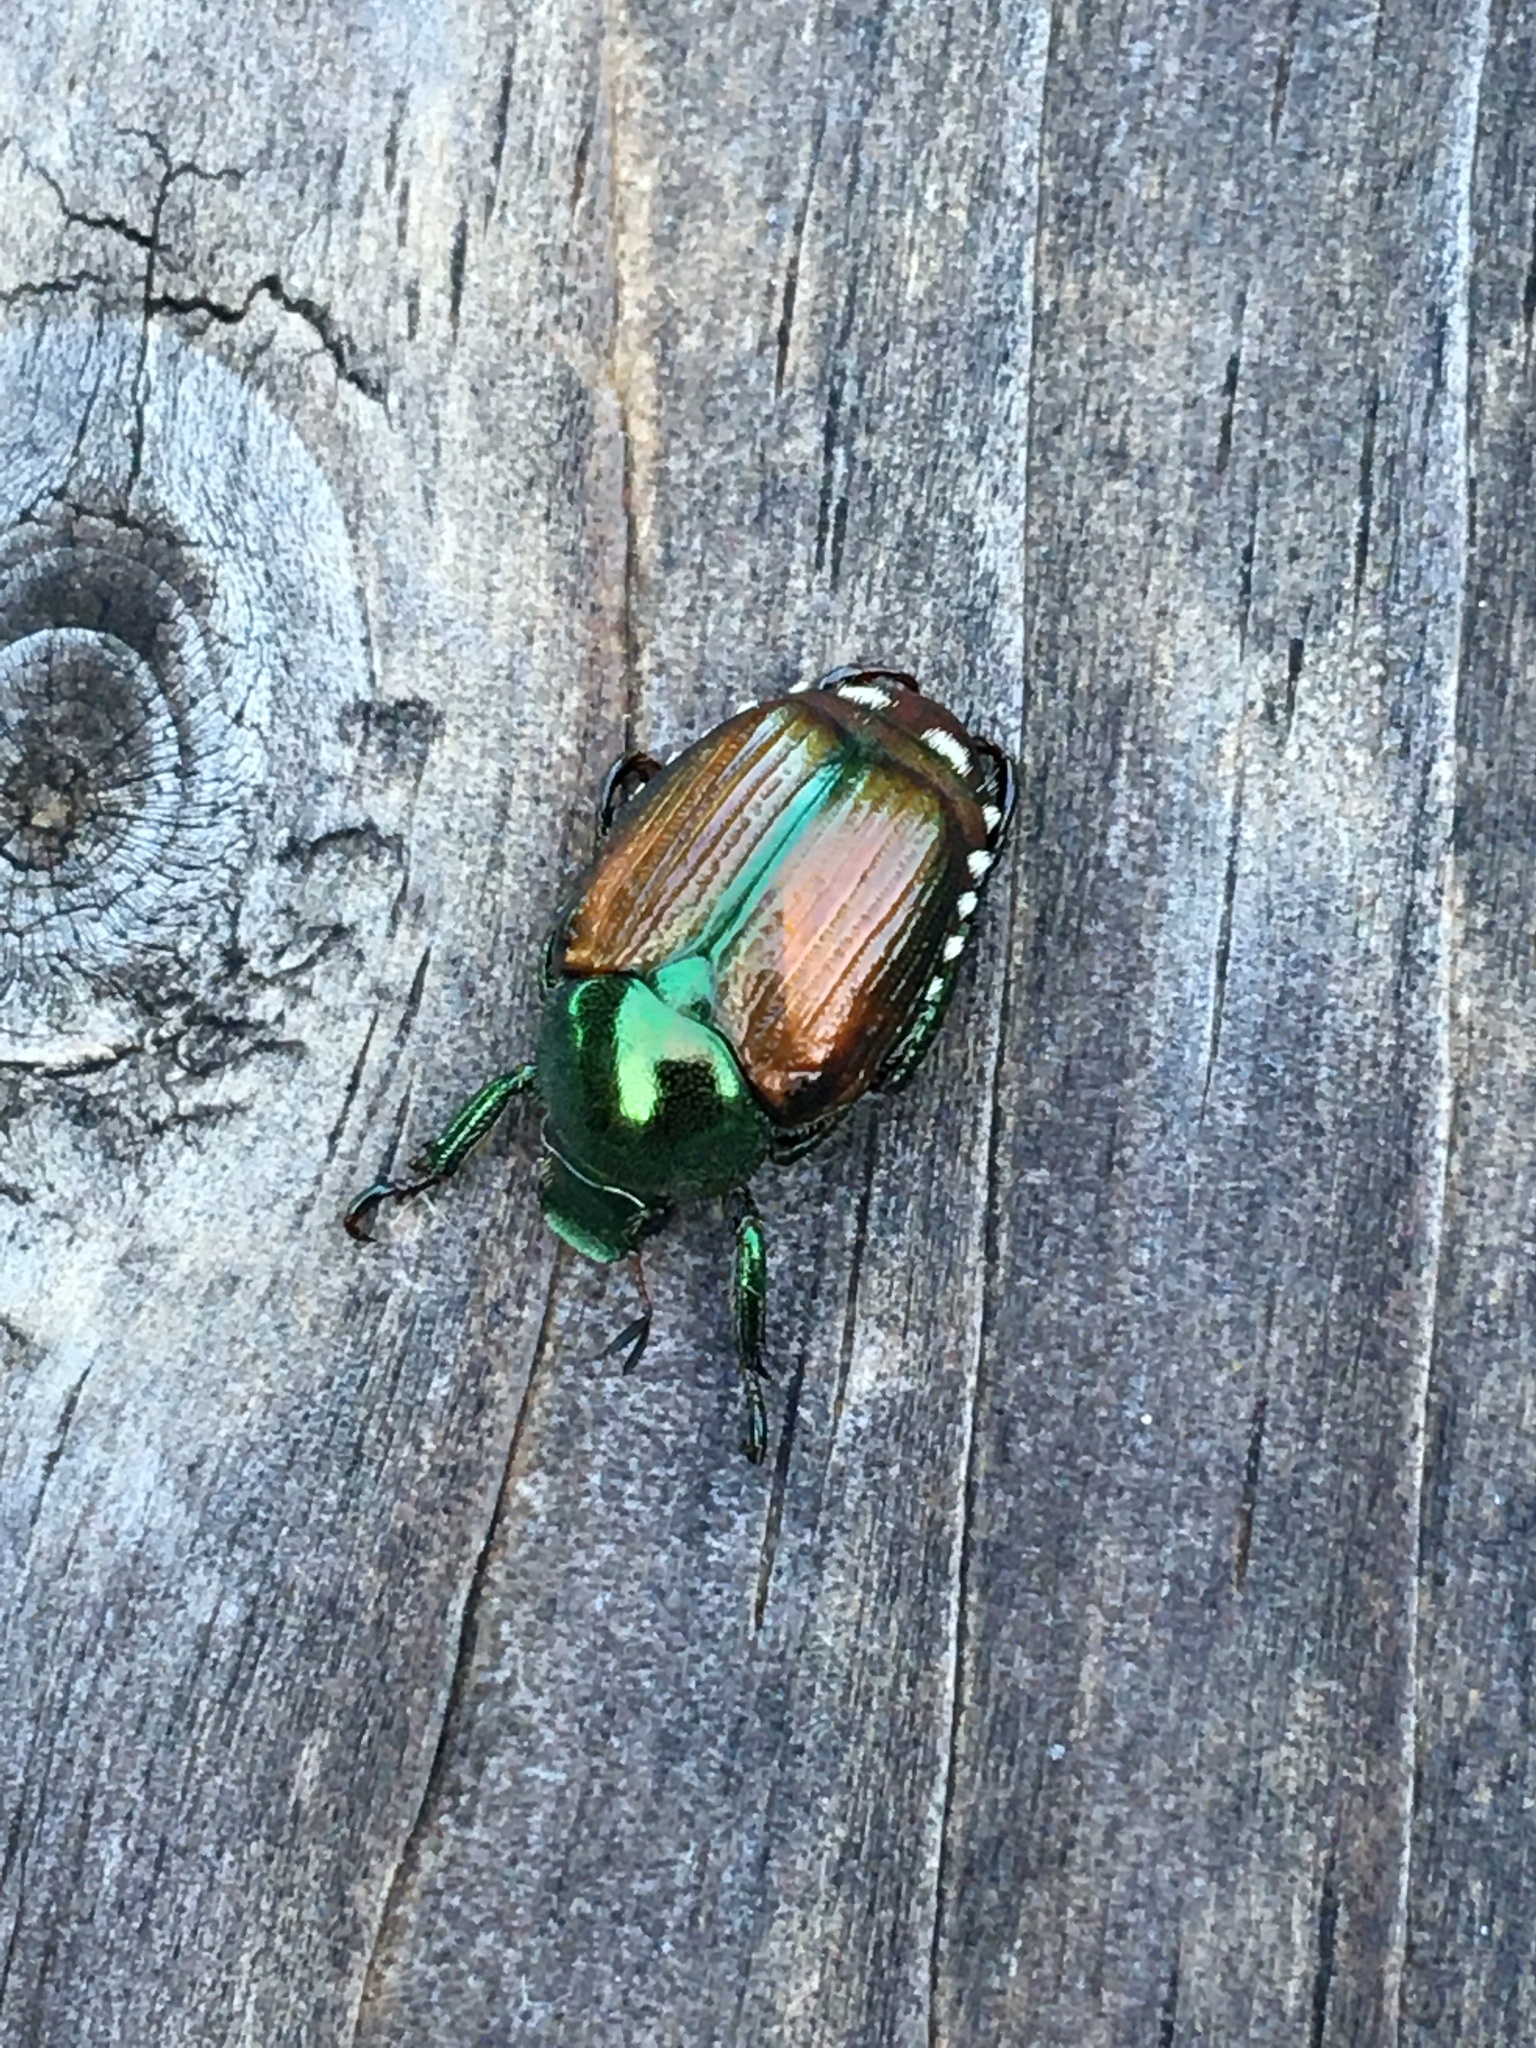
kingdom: Animalia
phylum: Arthropoda
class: Insecta
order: Coleoptera
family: Scarabaeidae
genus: Popillia
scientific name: Popillia japonica
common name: Japanese beetle
